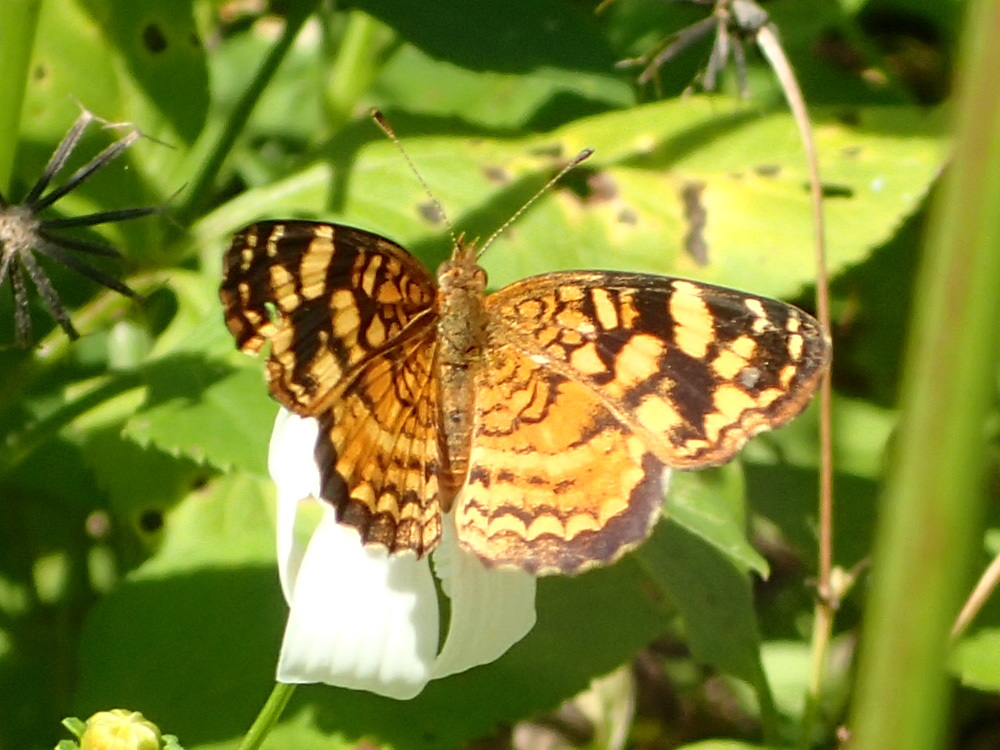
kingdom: Animalia
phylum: Arthropoda
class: Insecta
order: Lepidoptera
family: Nymphalidae
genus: Anthanassa
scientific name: Anthanassa frisia
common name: Cuban crescent
